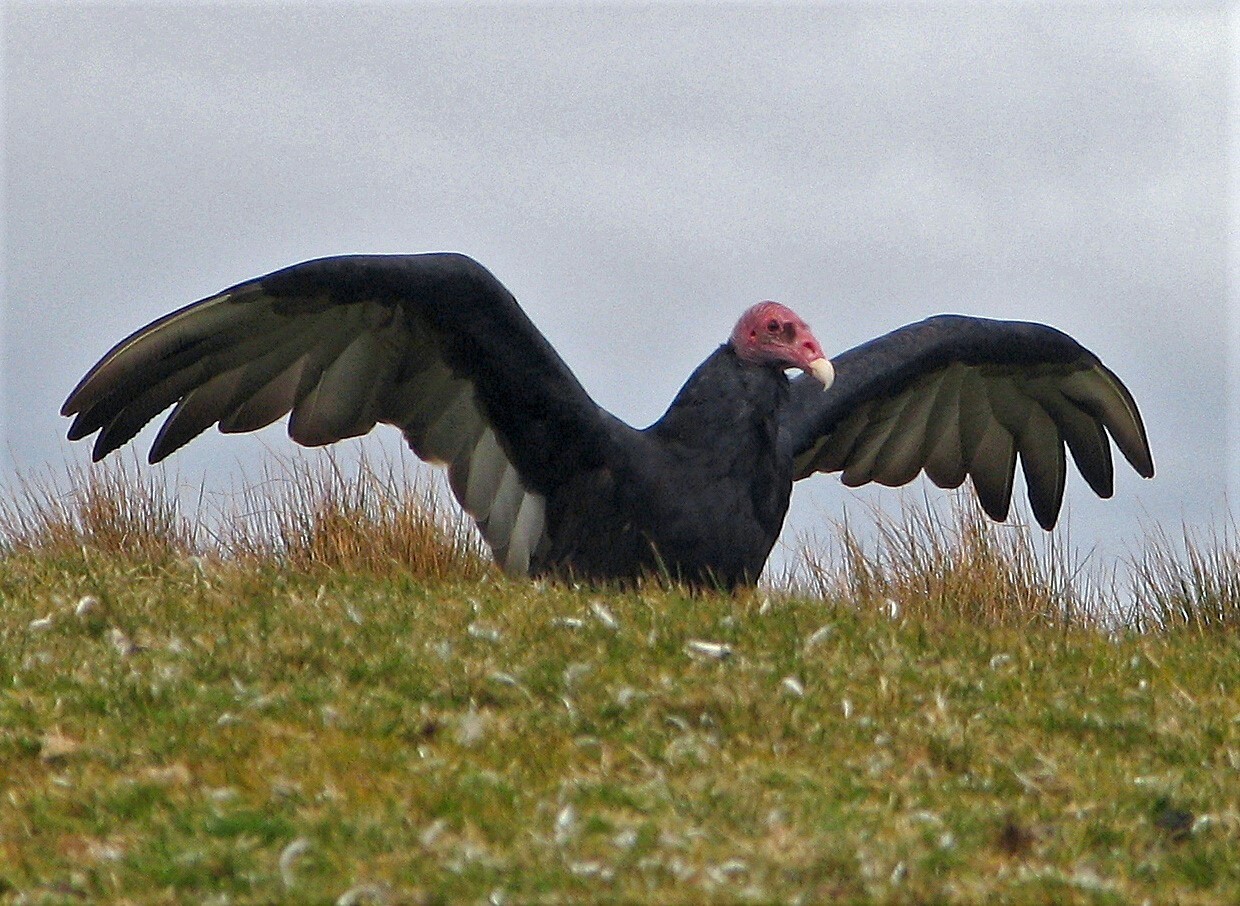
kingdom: Animalia
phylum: Chordata
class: Aves
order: Accipitriformes
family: Cathartidae
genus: Cathartes
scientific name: Cathartes aura
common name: Turkey vulture
